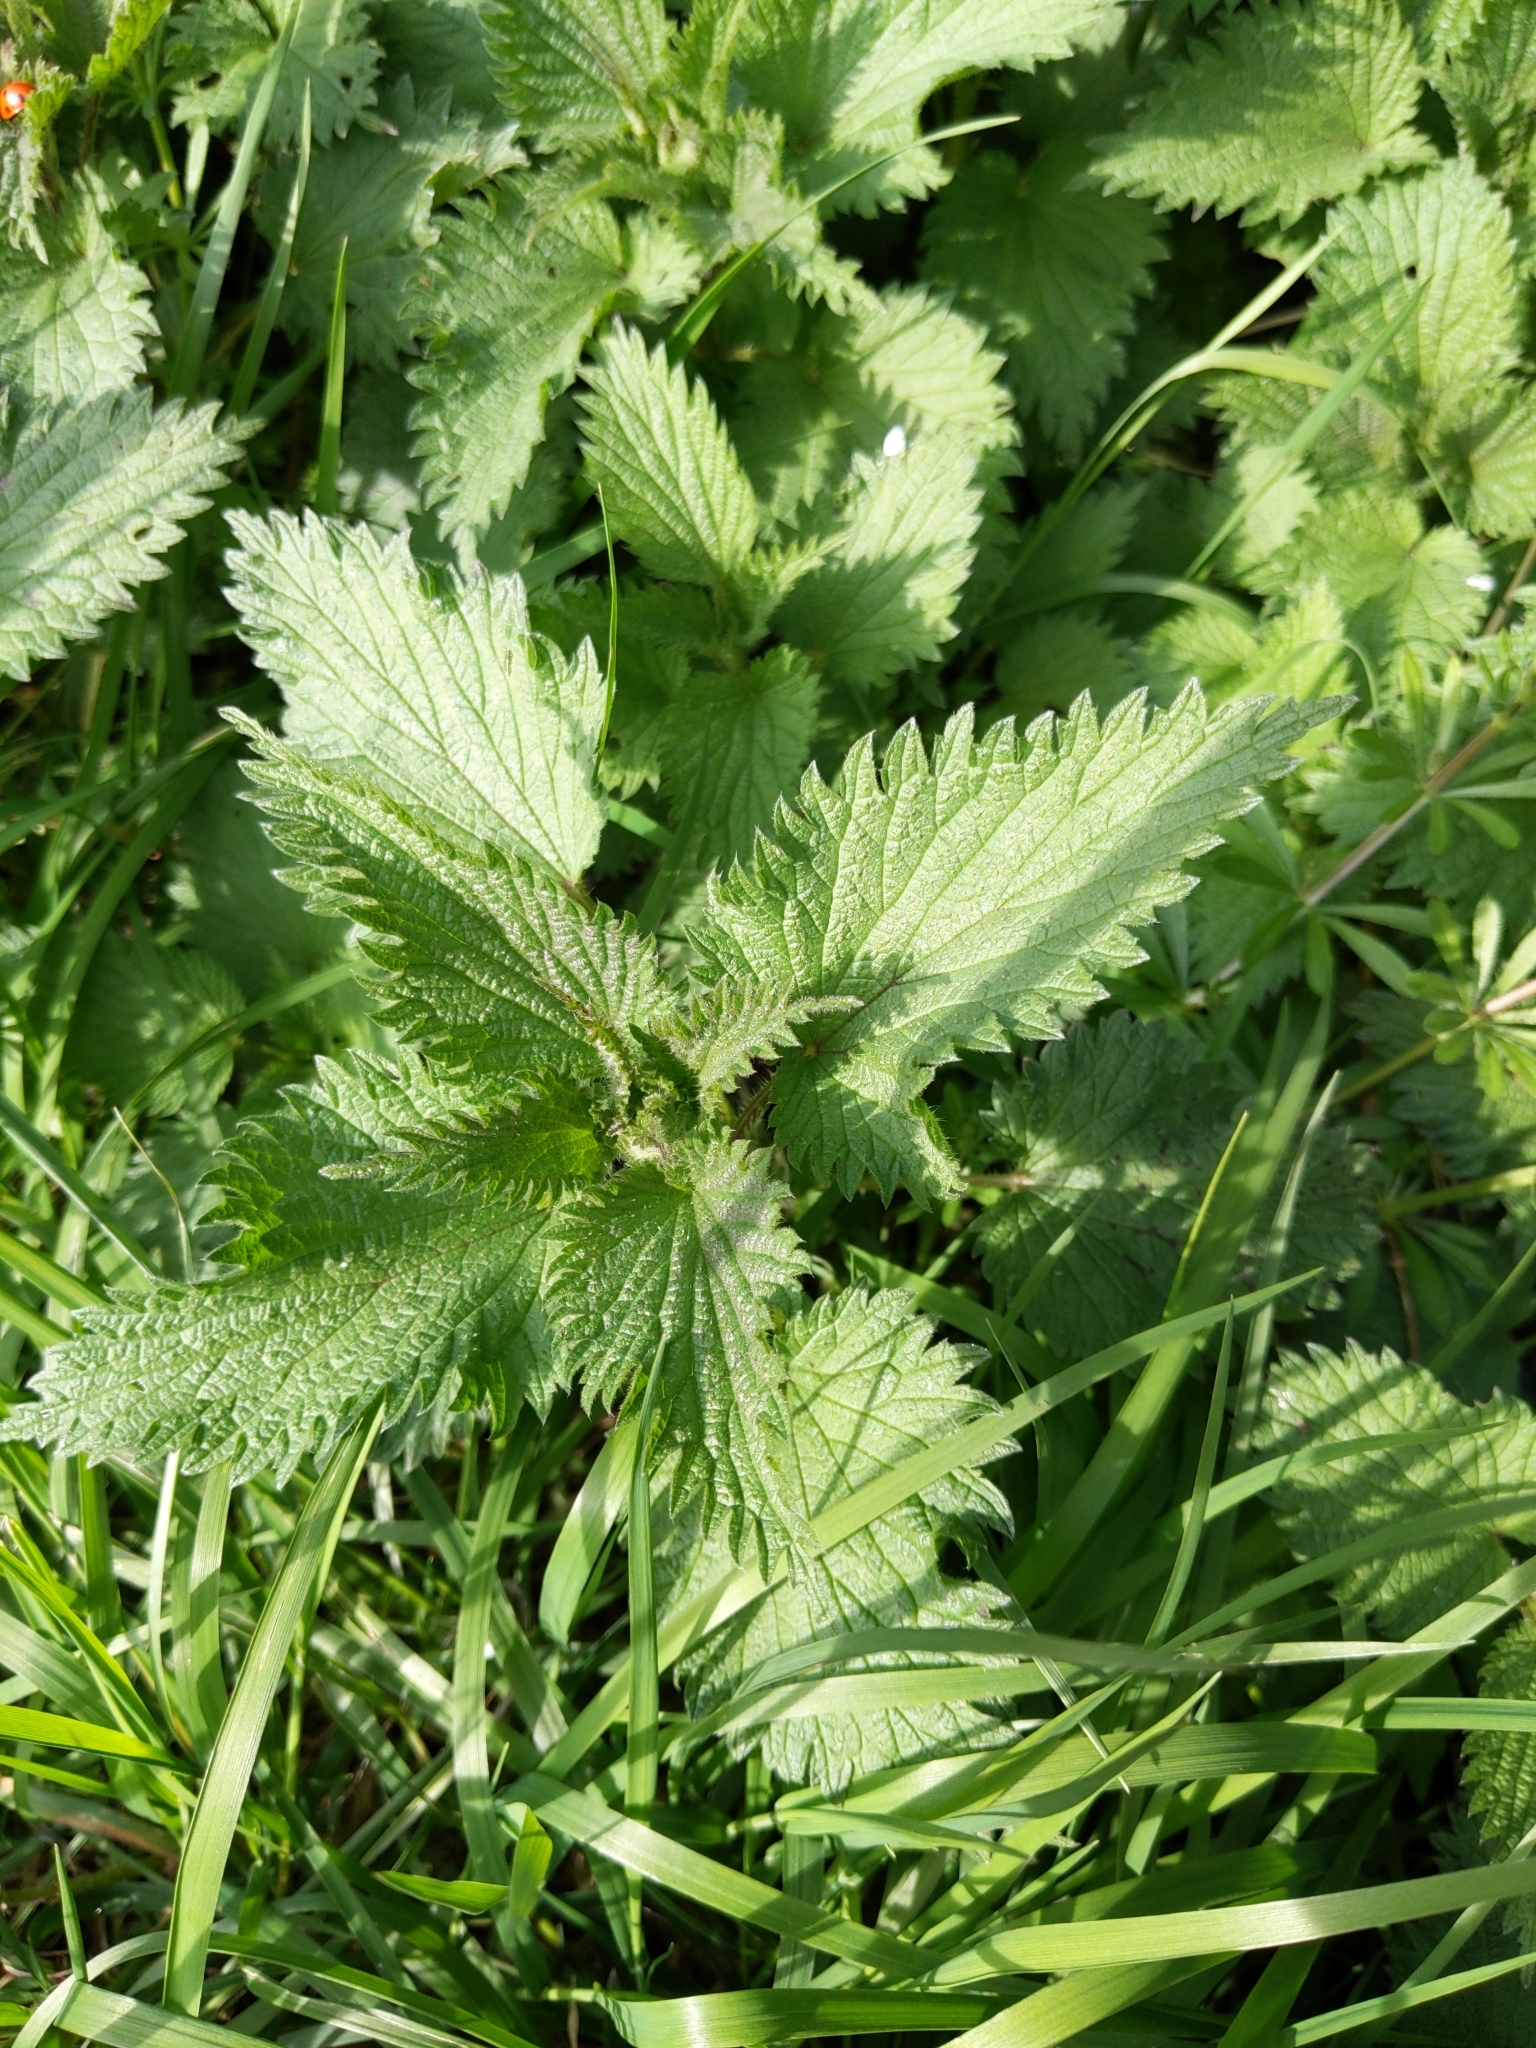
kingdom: Plantae
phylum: Tracheophyta
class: Magnoliopsida
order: Rosales
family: Urticaceae
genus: Urtica
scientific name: Urtica dioica
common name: Common nettle
